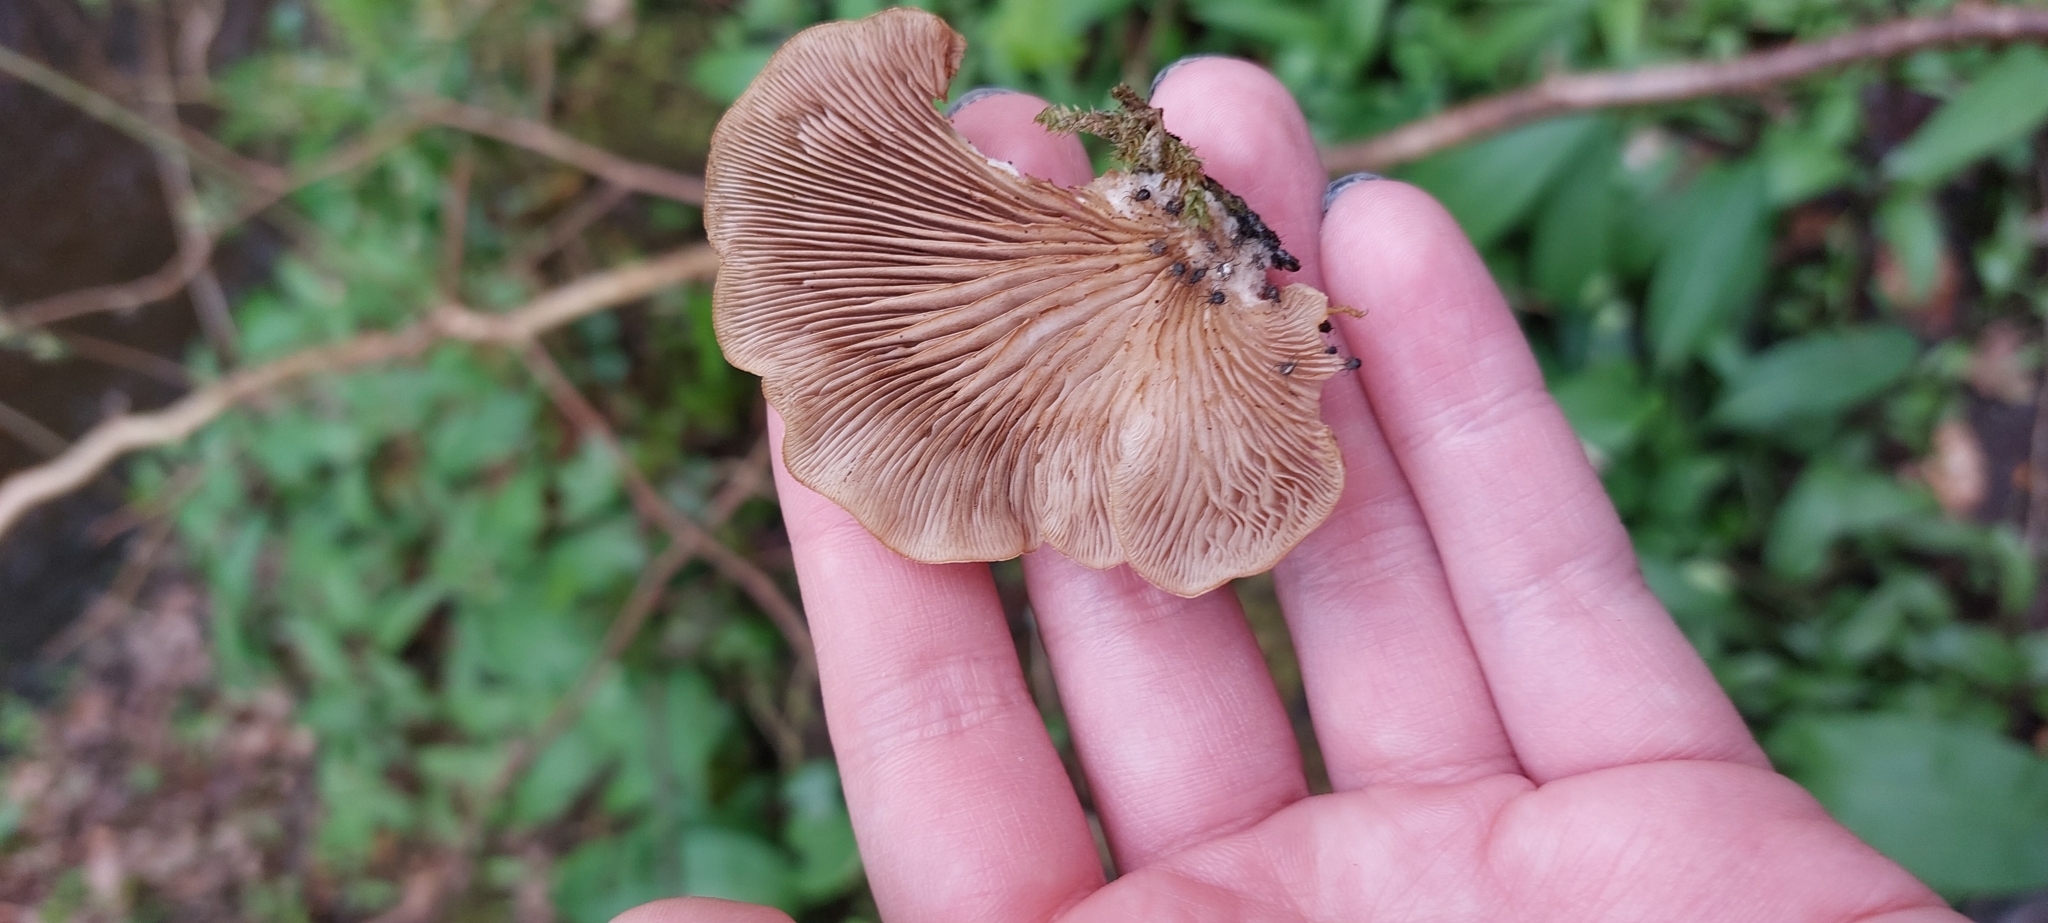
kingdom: Fungi
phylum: Basidiomycota
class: Agaricomycetes
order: Agaricales
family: Crepidotaceae
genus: Crepidotus
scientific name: Crepidotus calolepis
